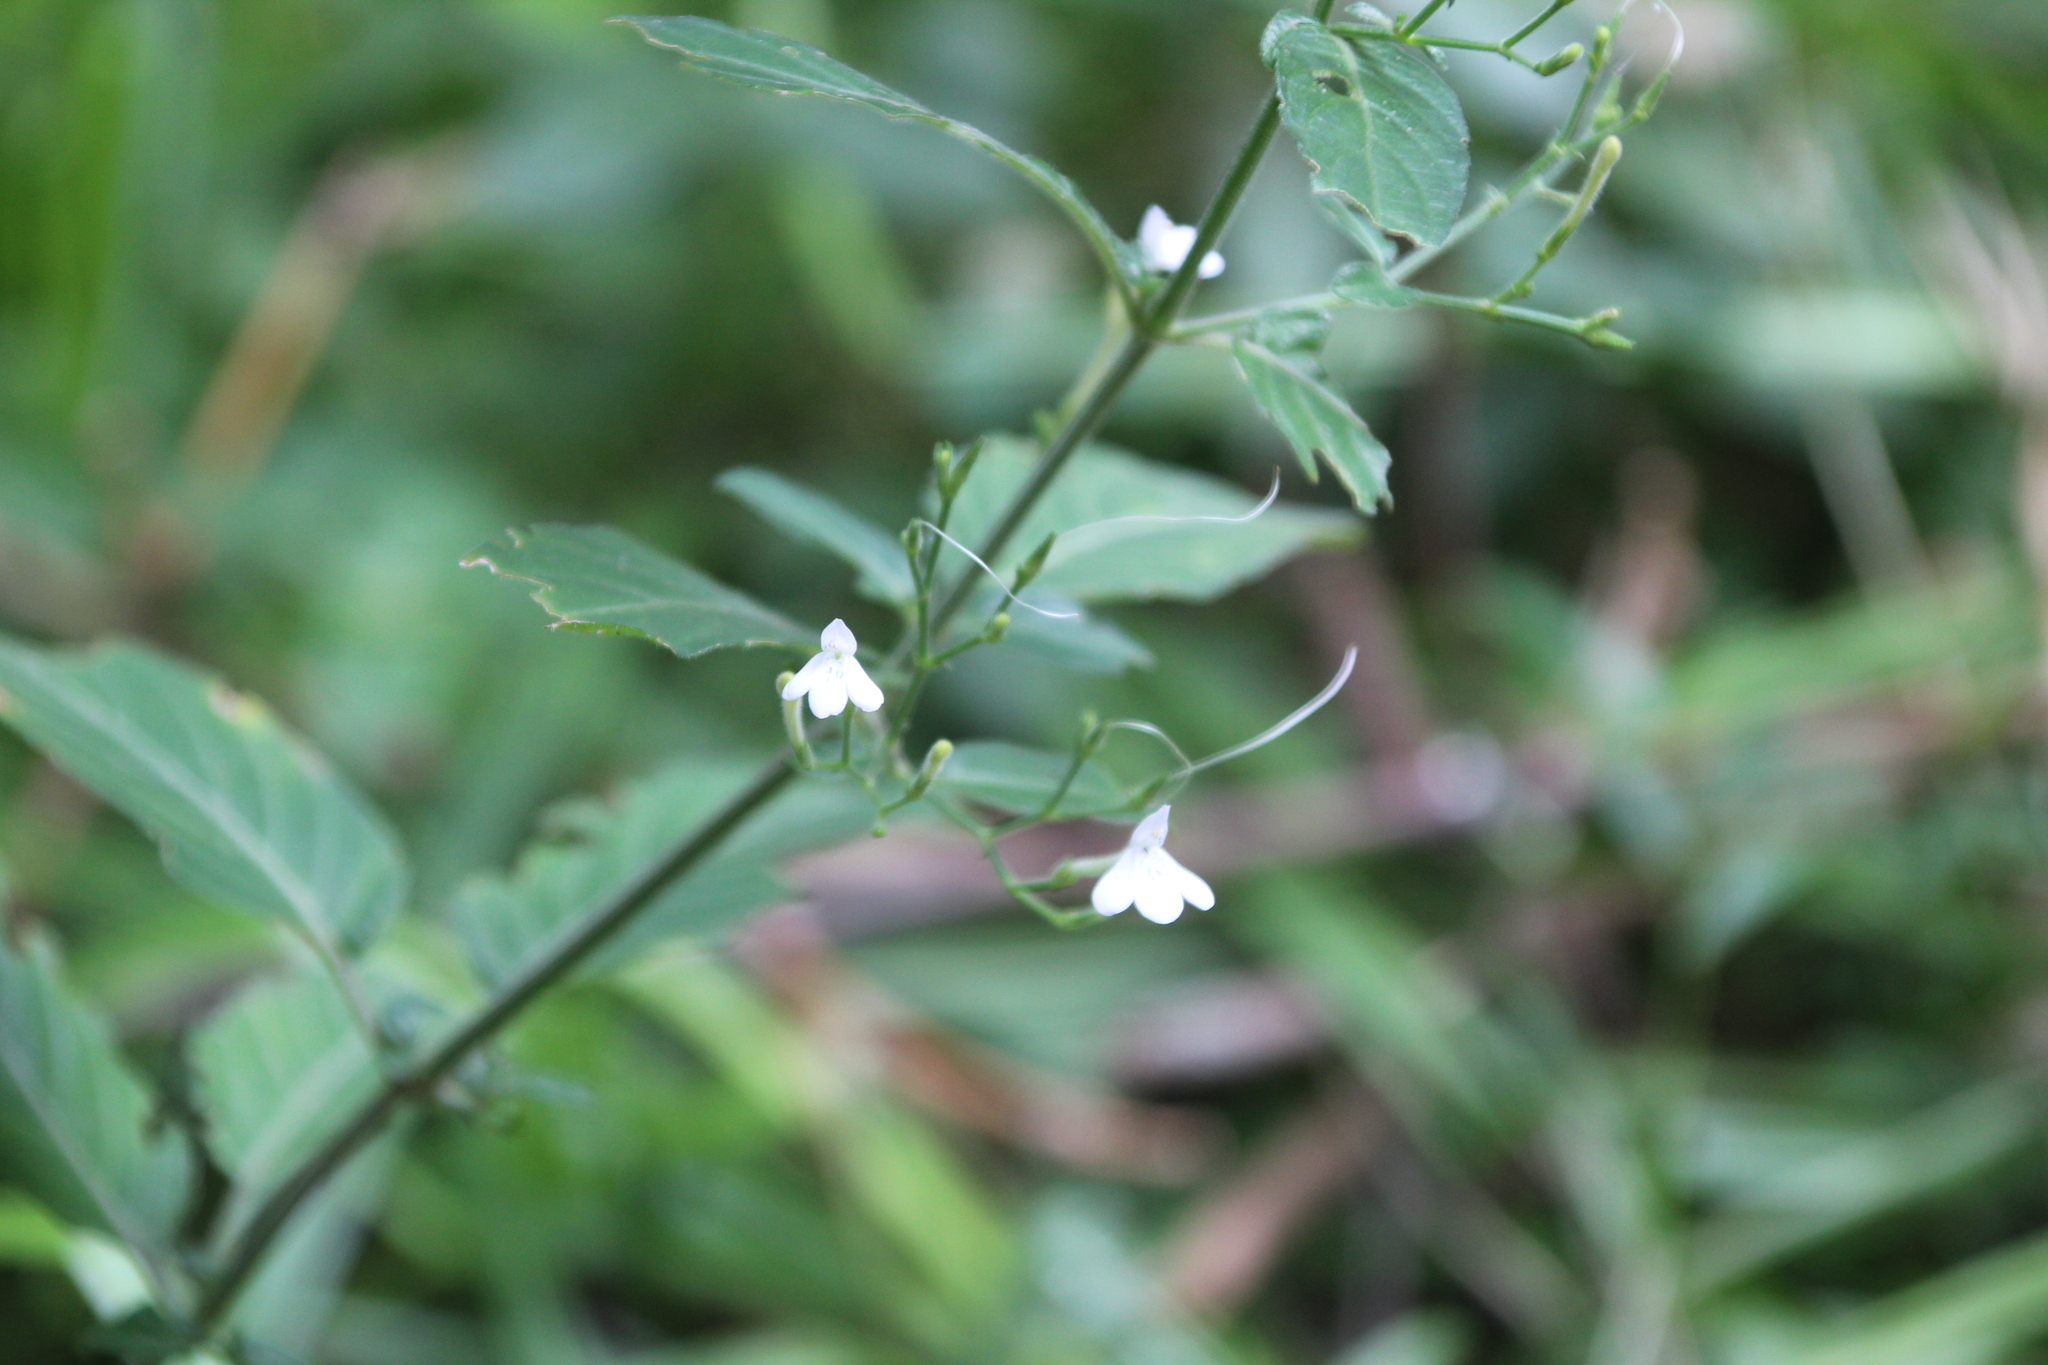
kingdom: Plantae
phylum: Tracheophyta
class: Magnoliopsida
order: Lamiales
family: Acanthaceae
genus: Rhinacanthus
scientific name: Rhinacanthus gracilis
